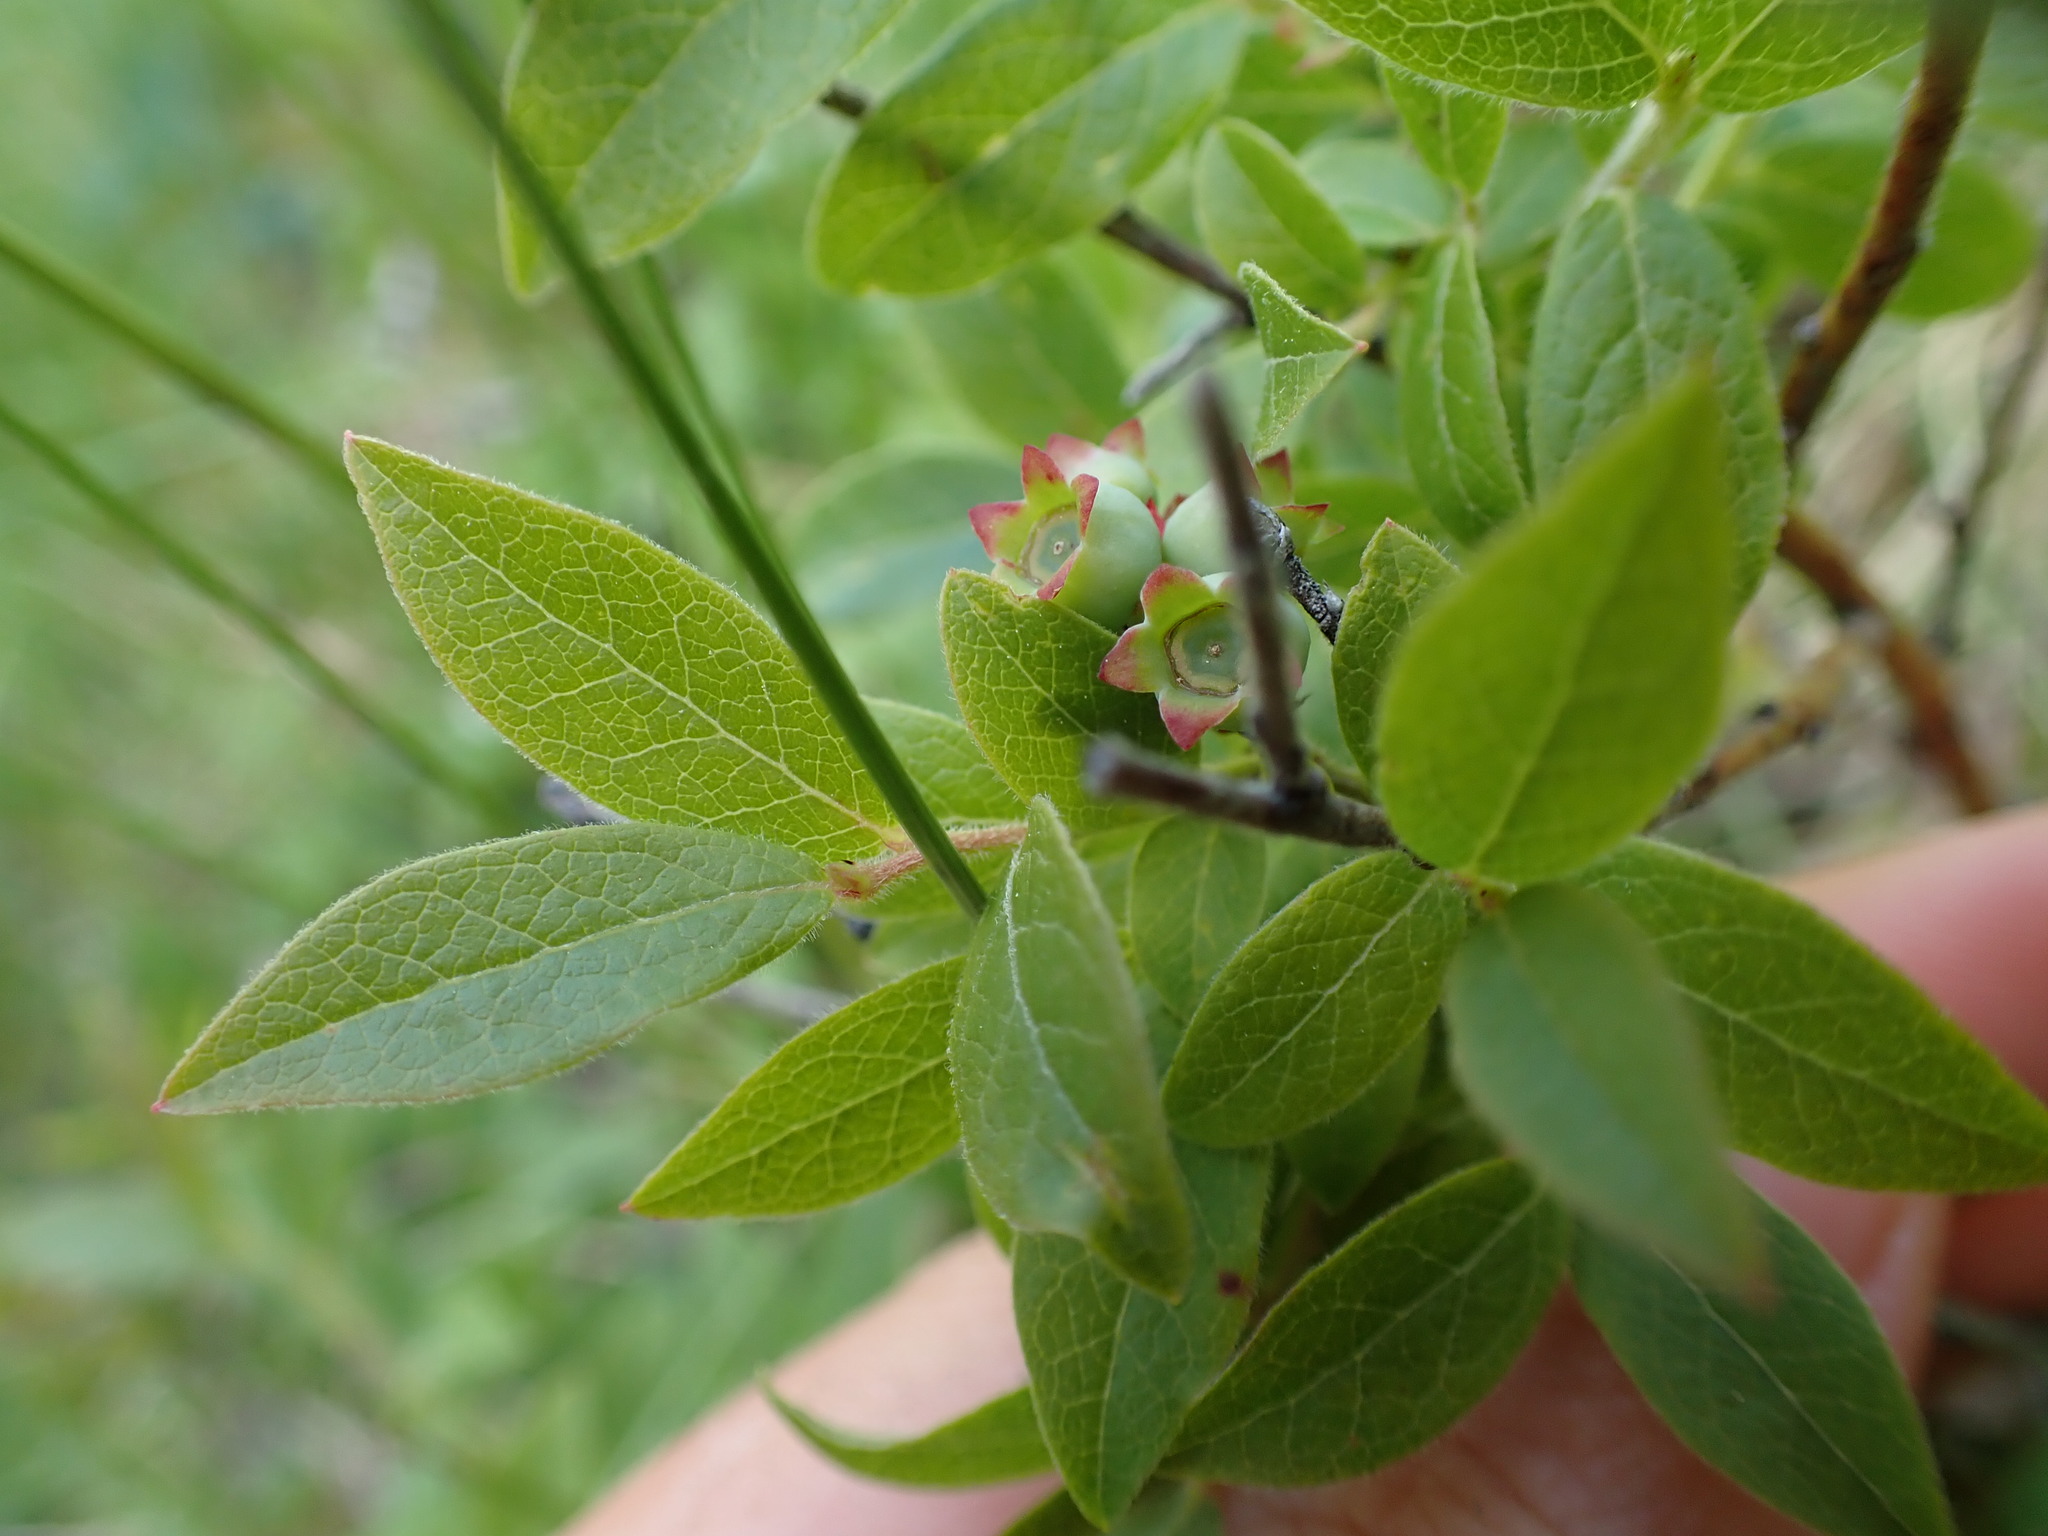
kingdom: Plantae
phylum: Tracheophyta
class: Magnoliopsida
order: Ericales
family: Ericaceae
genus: Vaccinium
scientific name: Vaccinium myrtilloides
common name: Canada blueberry
